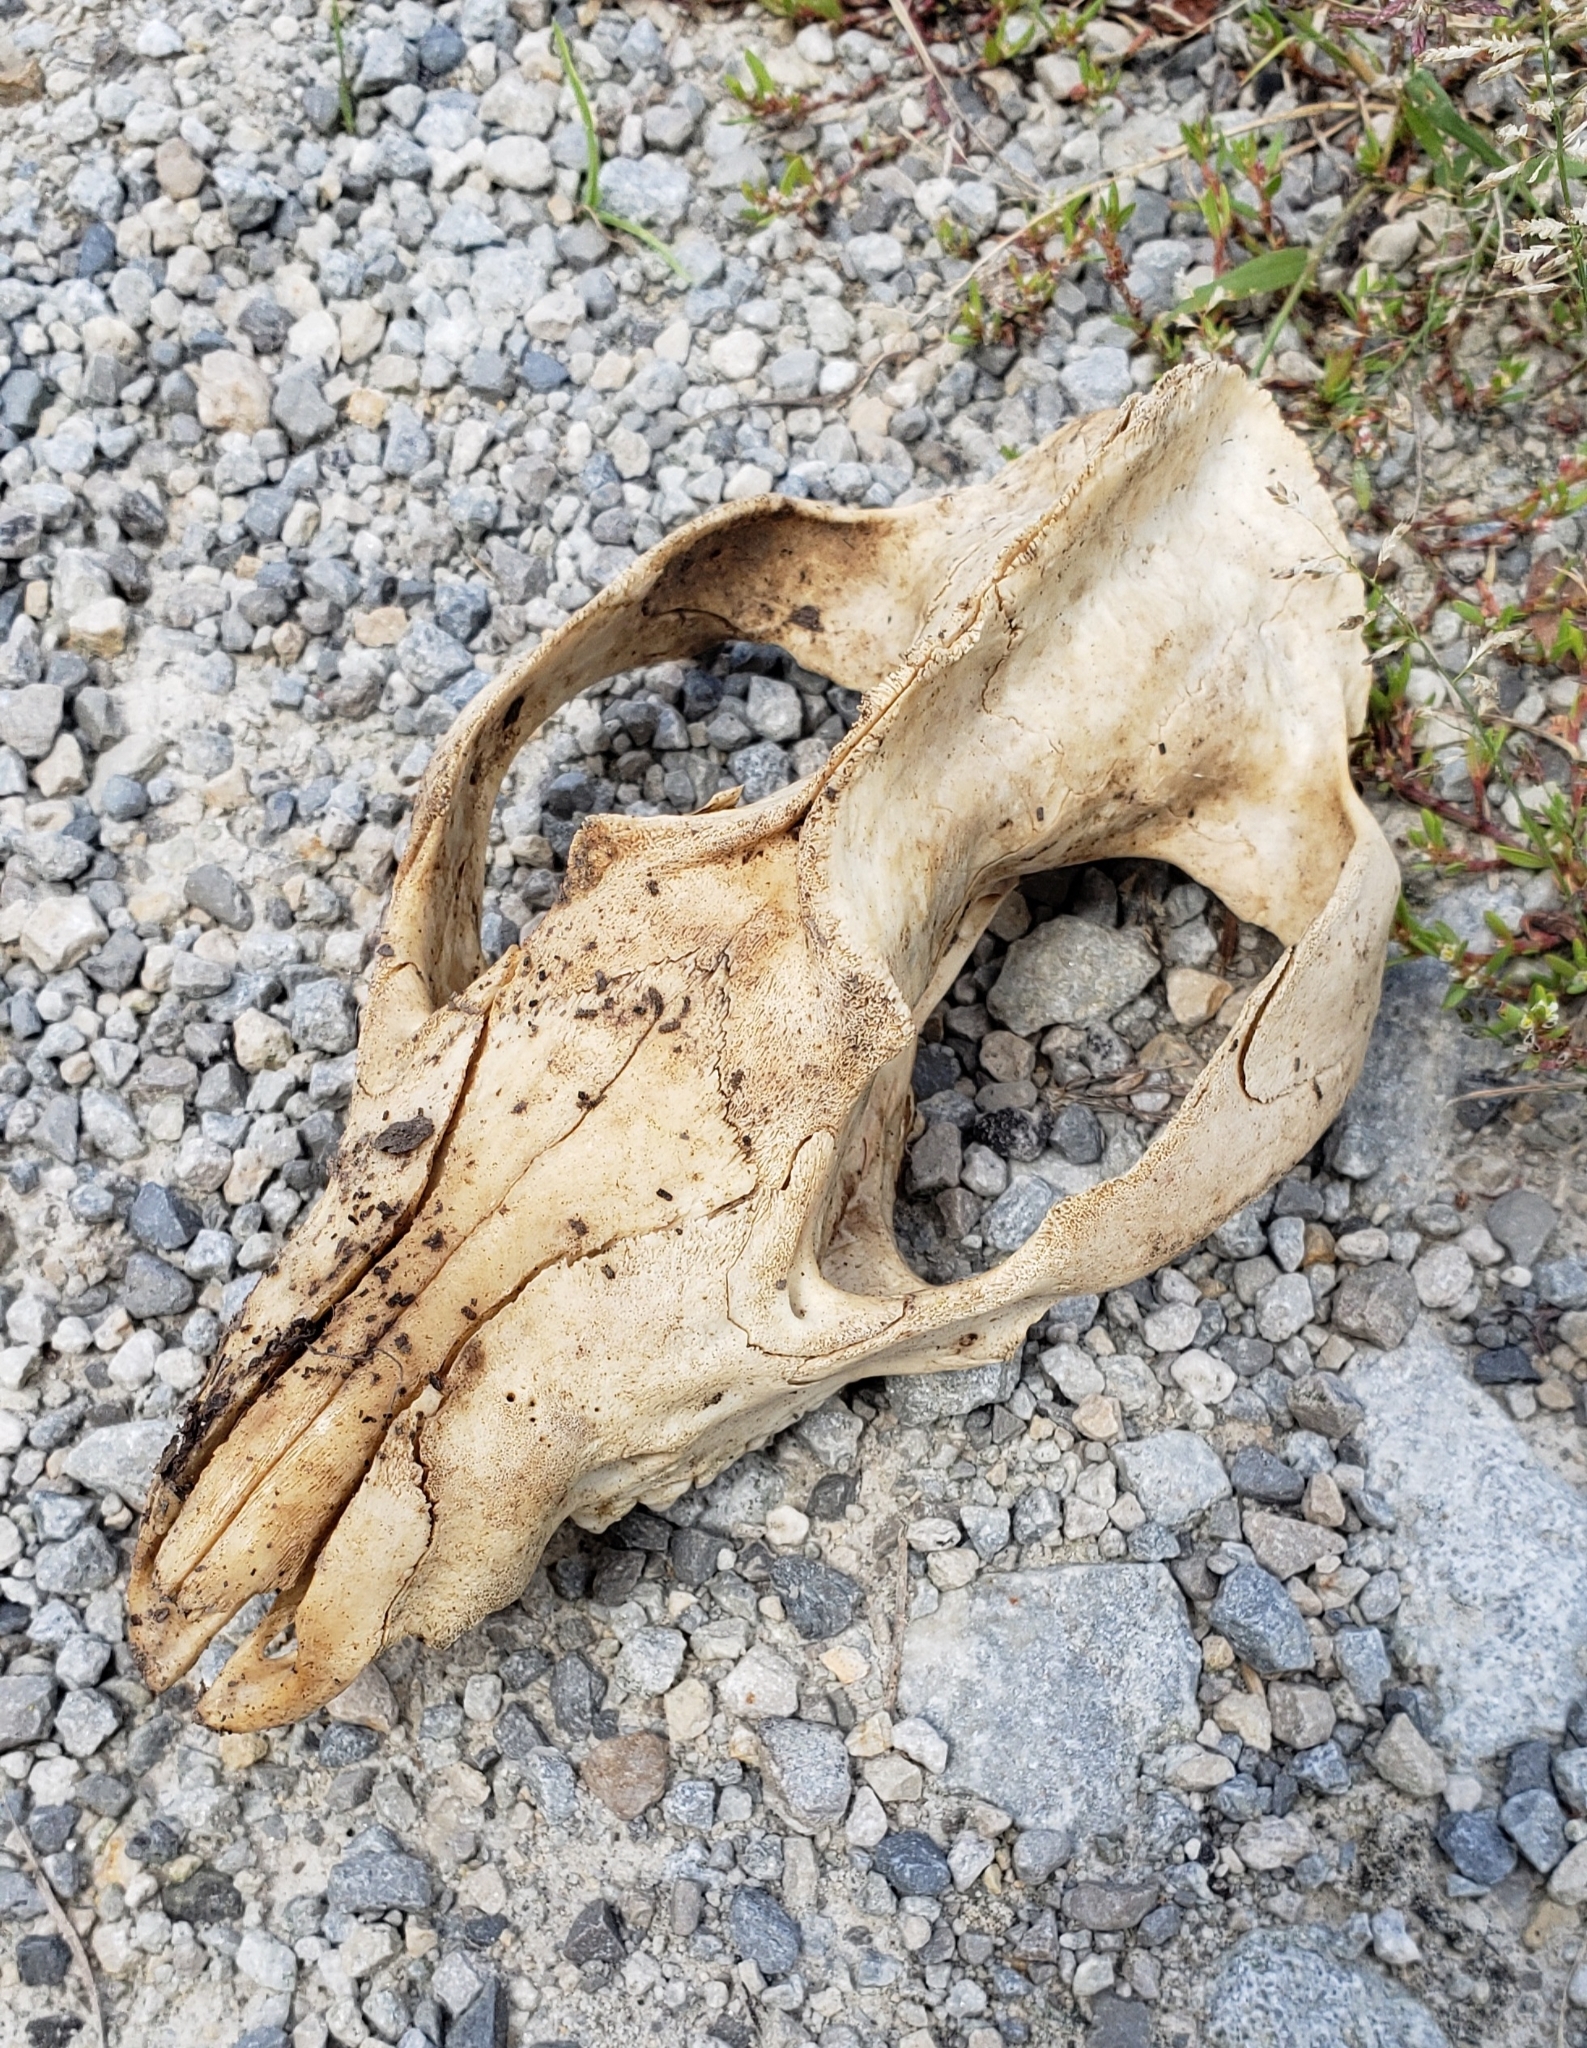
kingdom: Animalia
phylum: Chordata
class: Mammalia
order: Didelphimorphia
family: Didelphidae
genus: Didelphis
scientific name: Didelphis virginiana
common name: Virginia opossum
